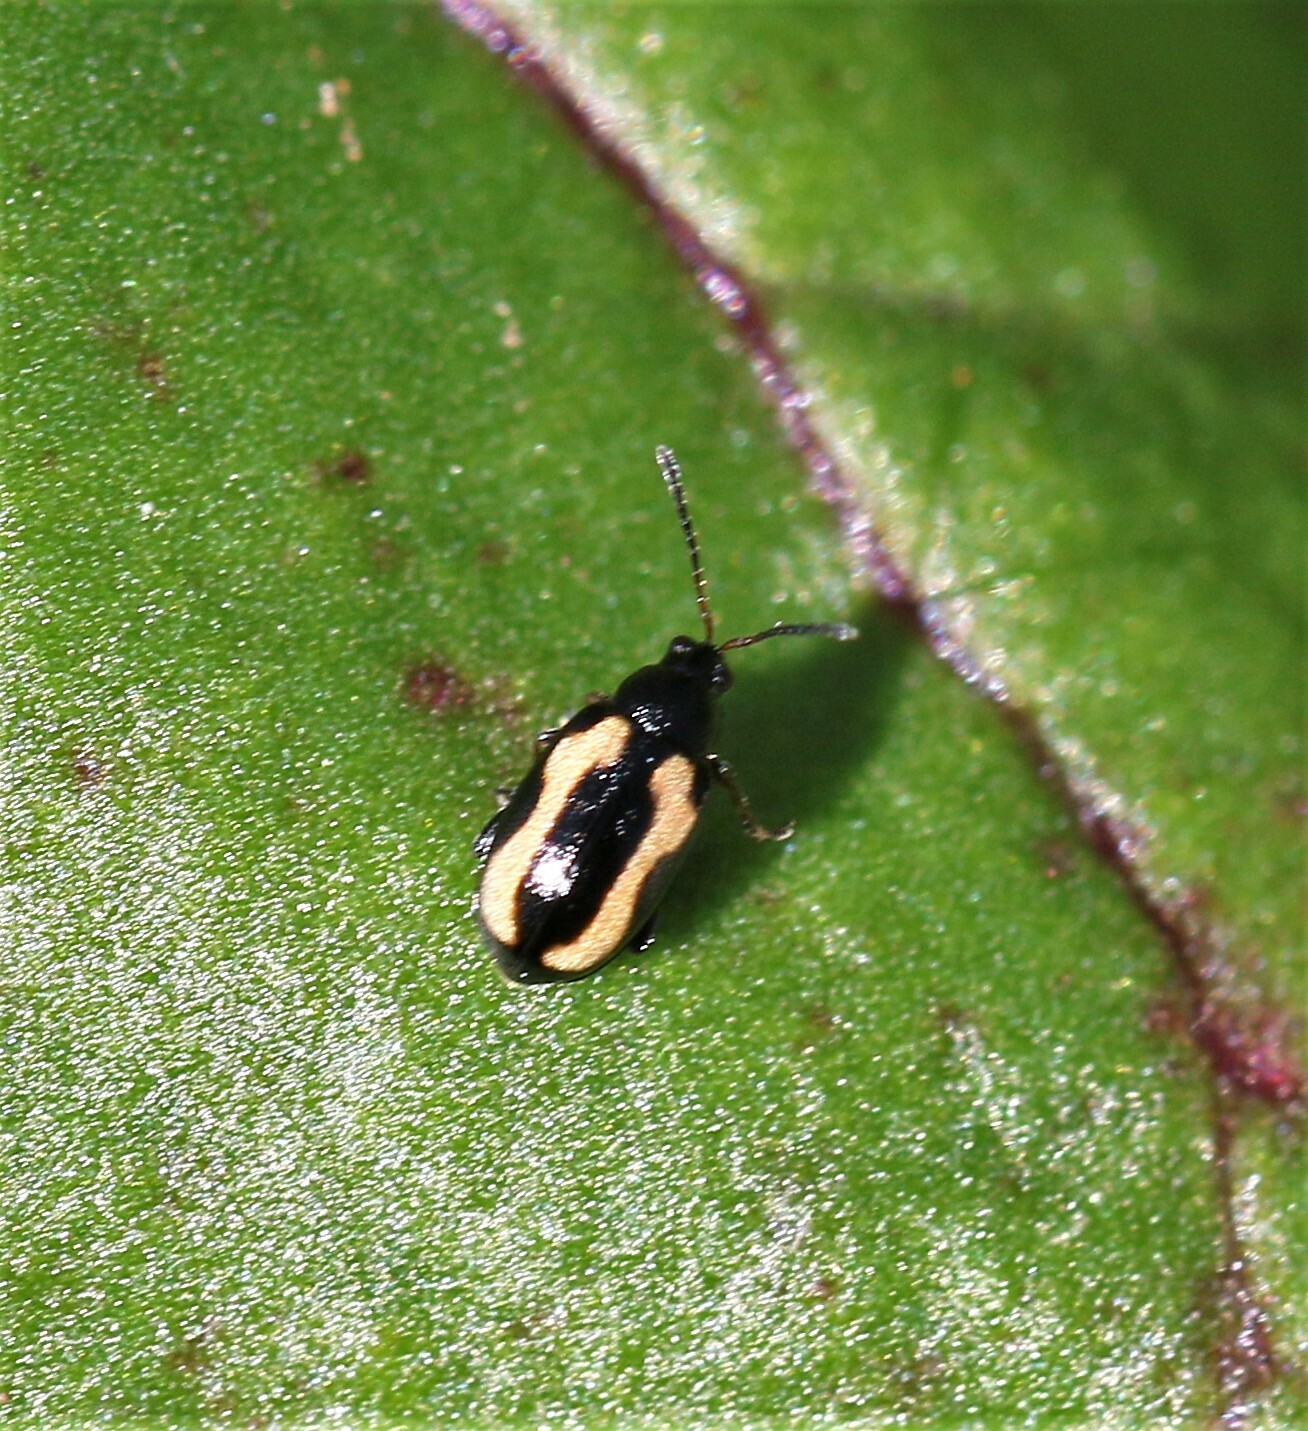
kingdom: Animalia
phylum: Arthropoda
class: Insecta
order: Coleoptera
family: Chrysomelidae
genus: Phyllotreta
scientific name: Phyllotreta striolata
